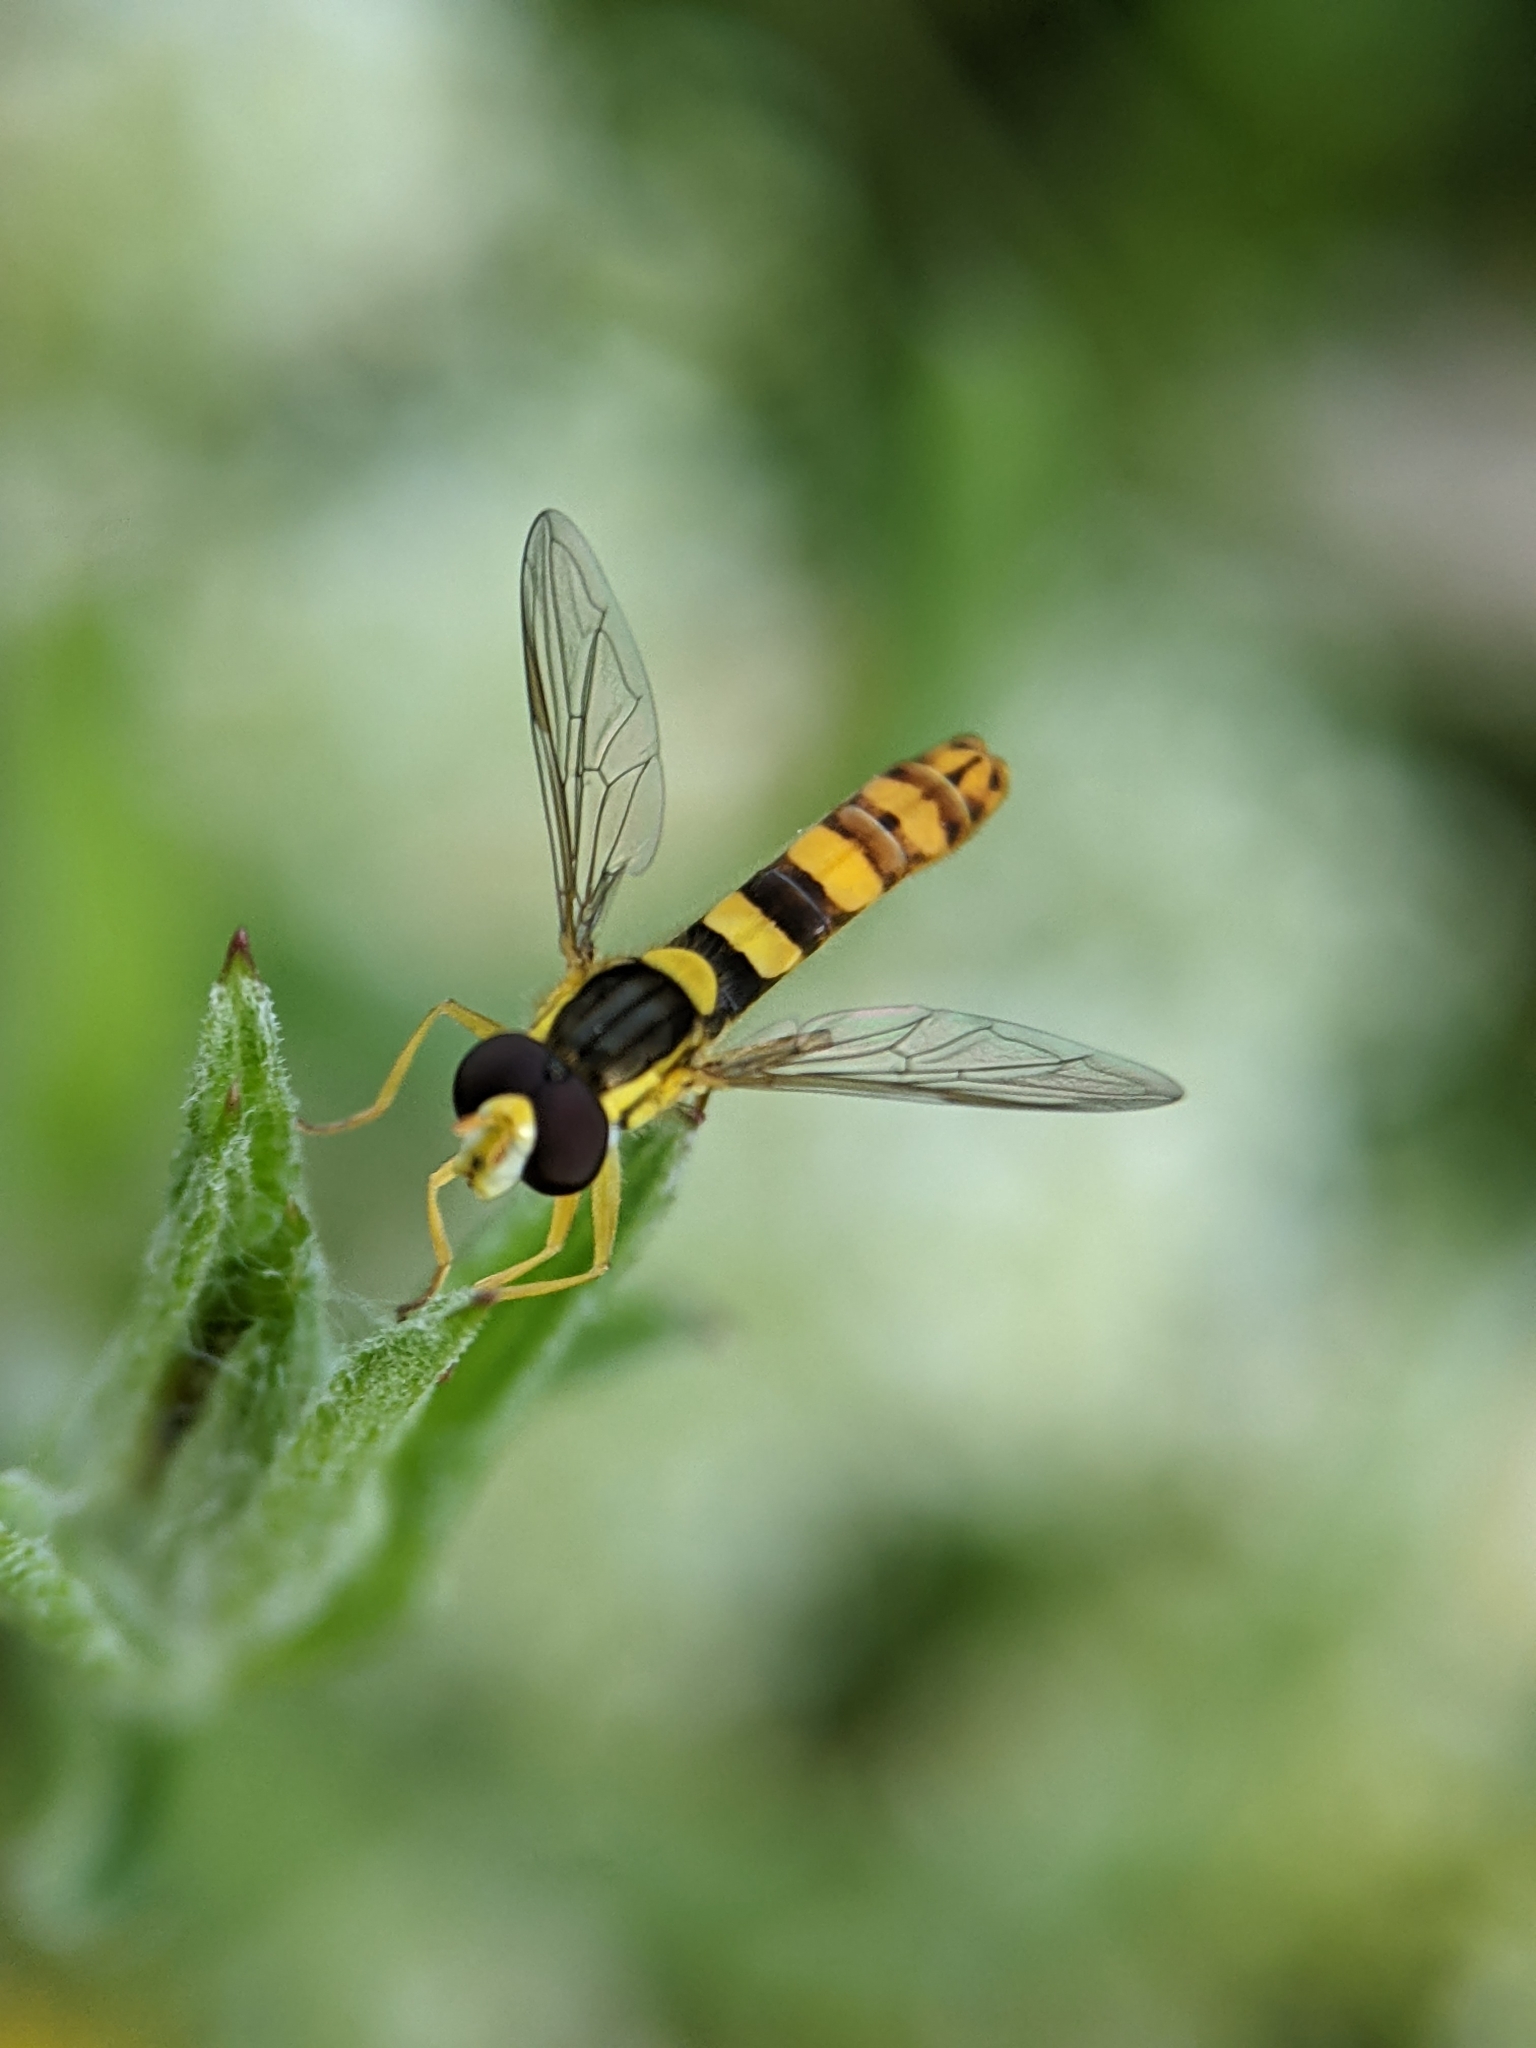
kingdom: Animalia
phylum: Arthropoda
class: Insecta
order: Diptera
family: Syrphidae
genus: Sphaerophoria
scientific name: Sphaerophoria scripta
